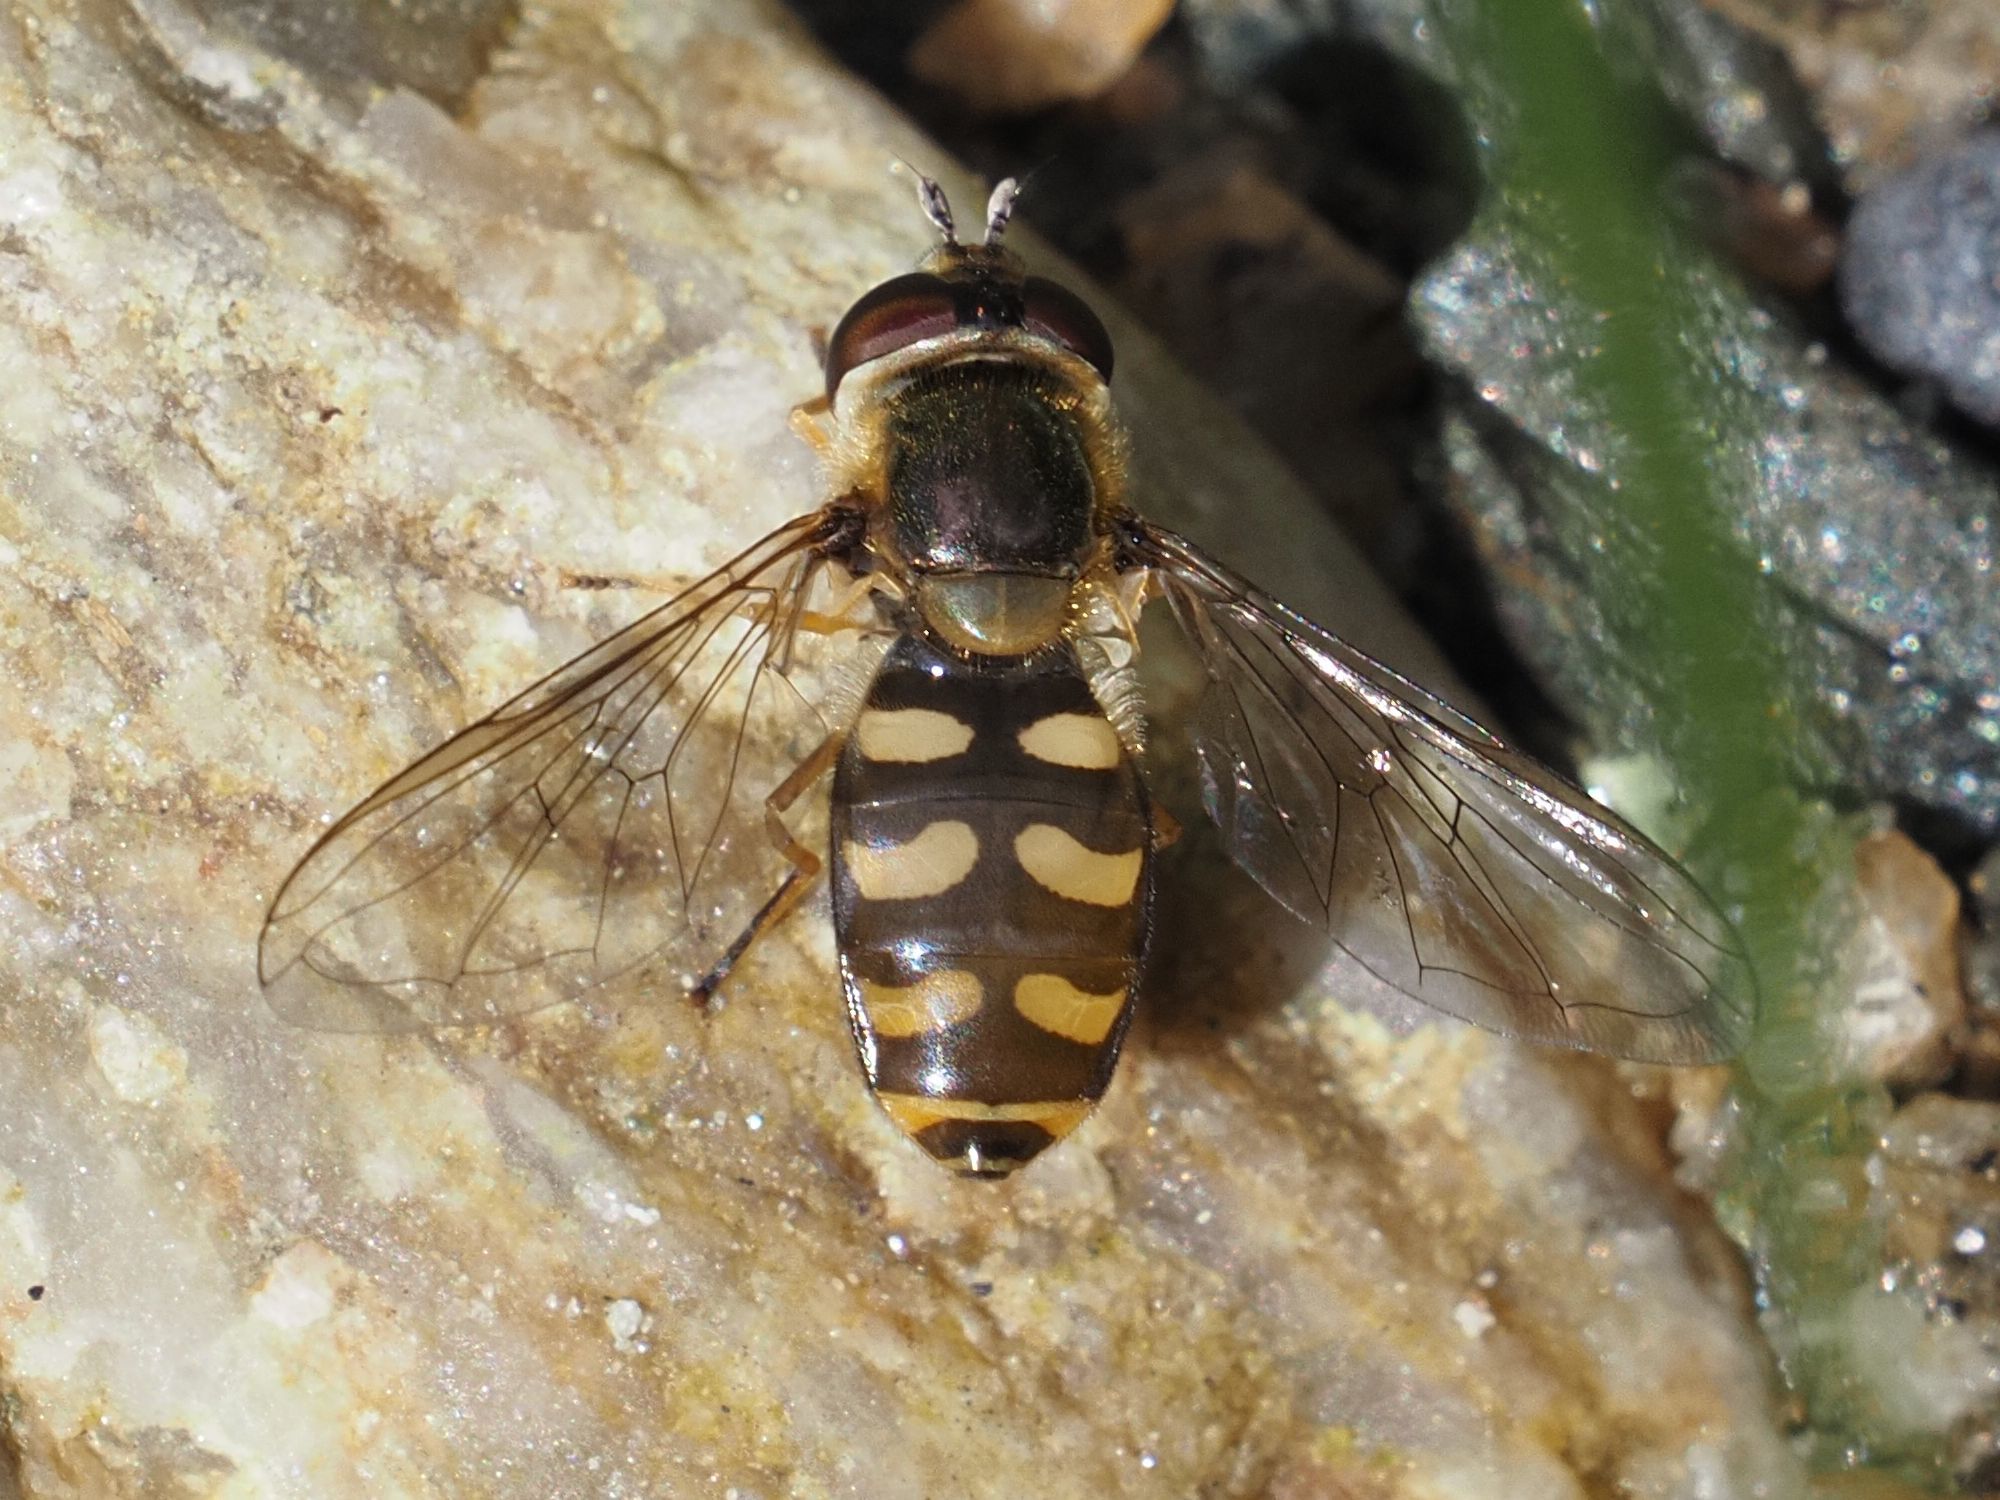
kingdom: Animalia
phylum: Arthropoda
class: Insecta
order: Diptera
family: Syrphidae
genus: Eupeodes
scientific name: Eupeodes luniger
